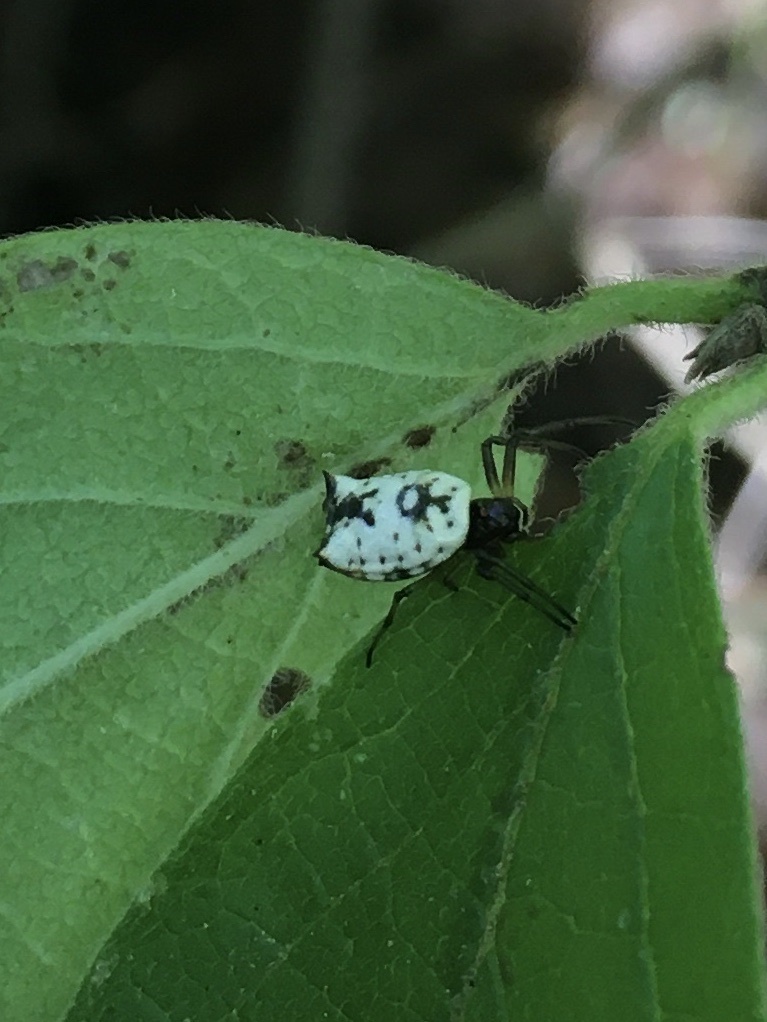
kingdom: Animalia
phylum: Arthropoda
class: Arachnida
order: Araneae
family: Araneidae
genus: Micrathena
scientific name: Micrathena mitrata
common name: Orb weavers
